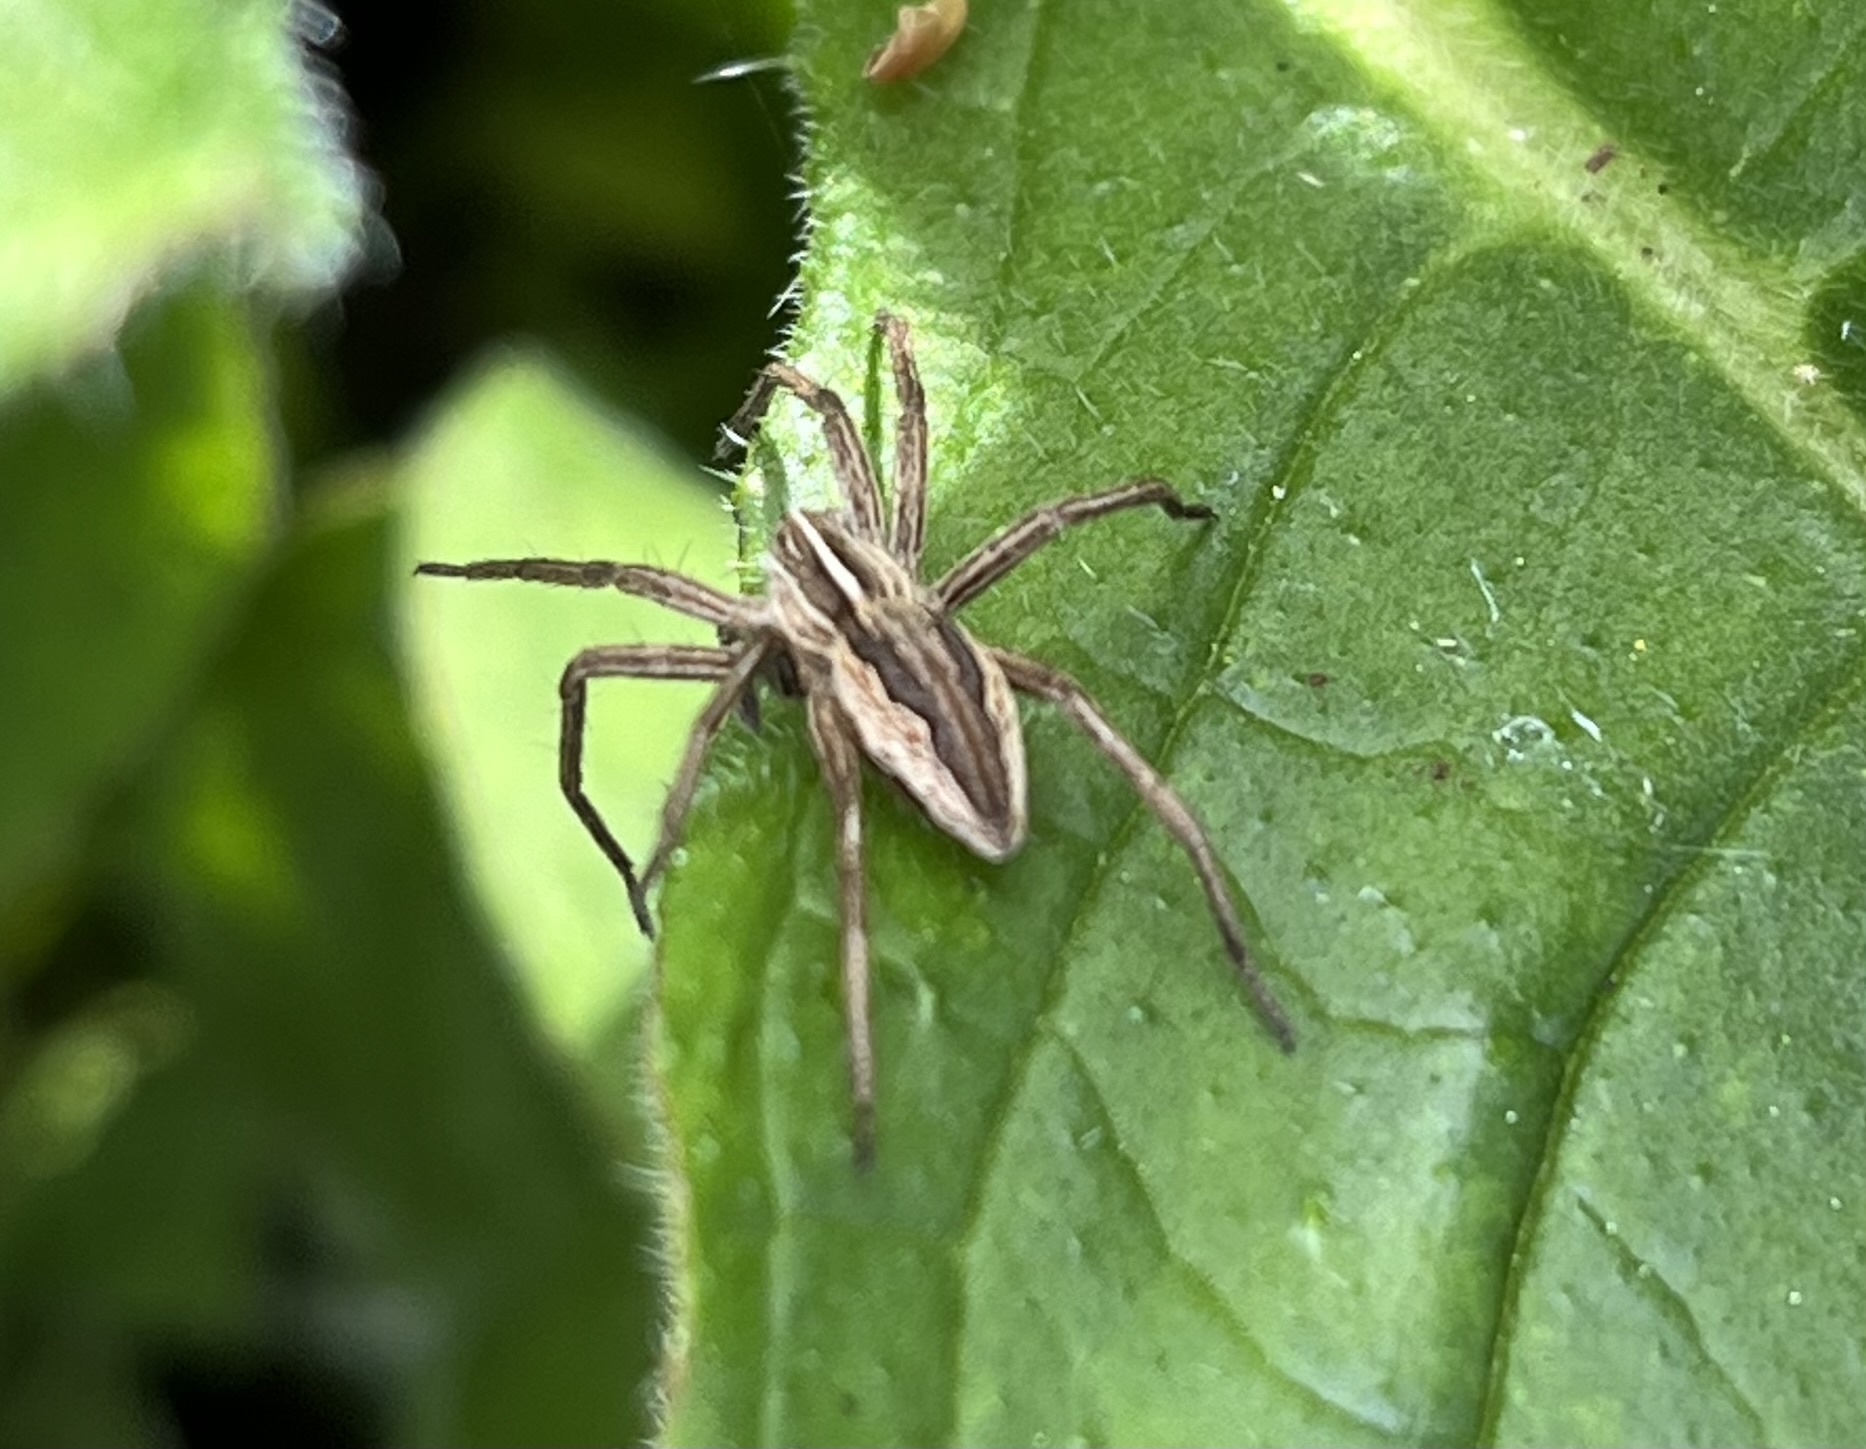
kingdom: Animalia
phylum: Arthropoda
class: Arachnida
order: Araneae
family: Pisauridae
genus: Pisaura
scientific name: Pisaura mirabilis
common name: Tent spider
